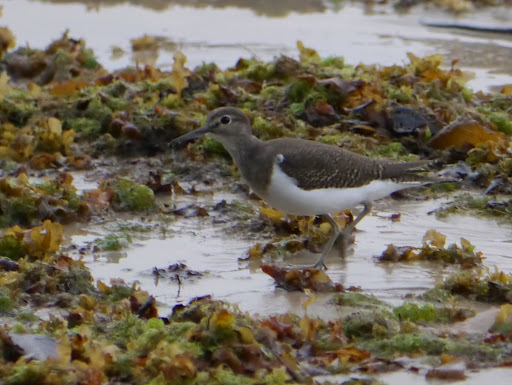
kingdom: Animalia
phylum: Chordata
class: Aves
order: Charadriiformes
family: Scolopacidae
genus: Actitis
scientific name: Actitis hypoleucos
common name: Common sandpiper
